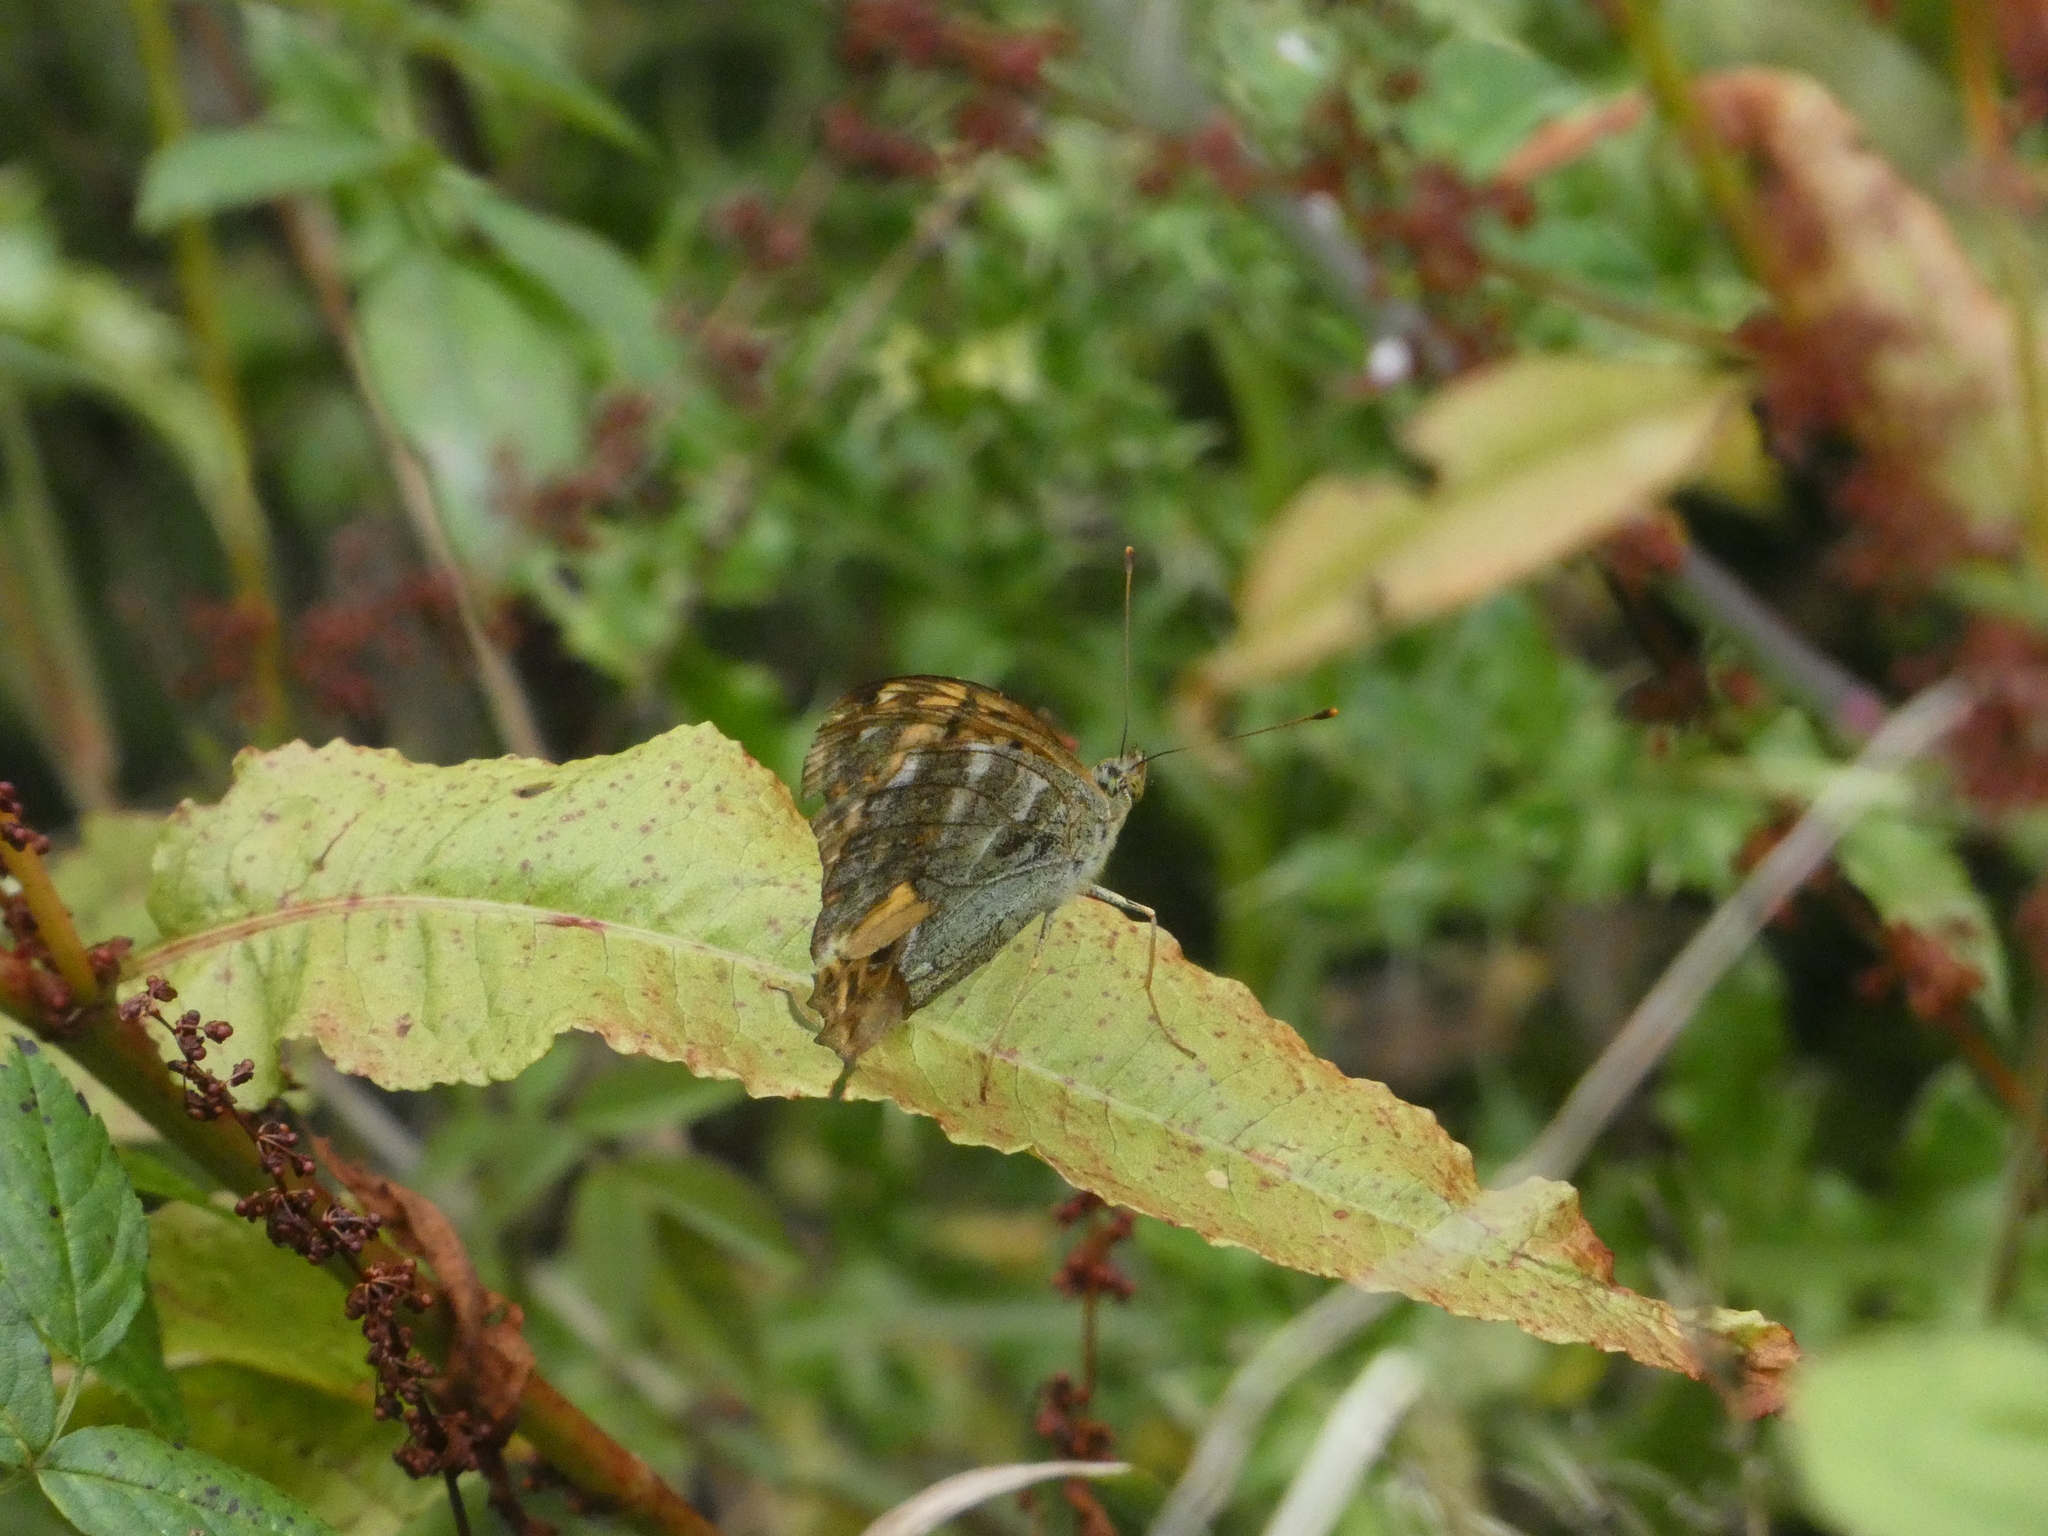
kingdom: Animalia
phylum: Arthropoda
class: Insecta
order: Lepidoptera
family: Nymphalidae
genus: Argynnis
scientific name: Argynnis paphia
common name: Silver-washed fritillary
